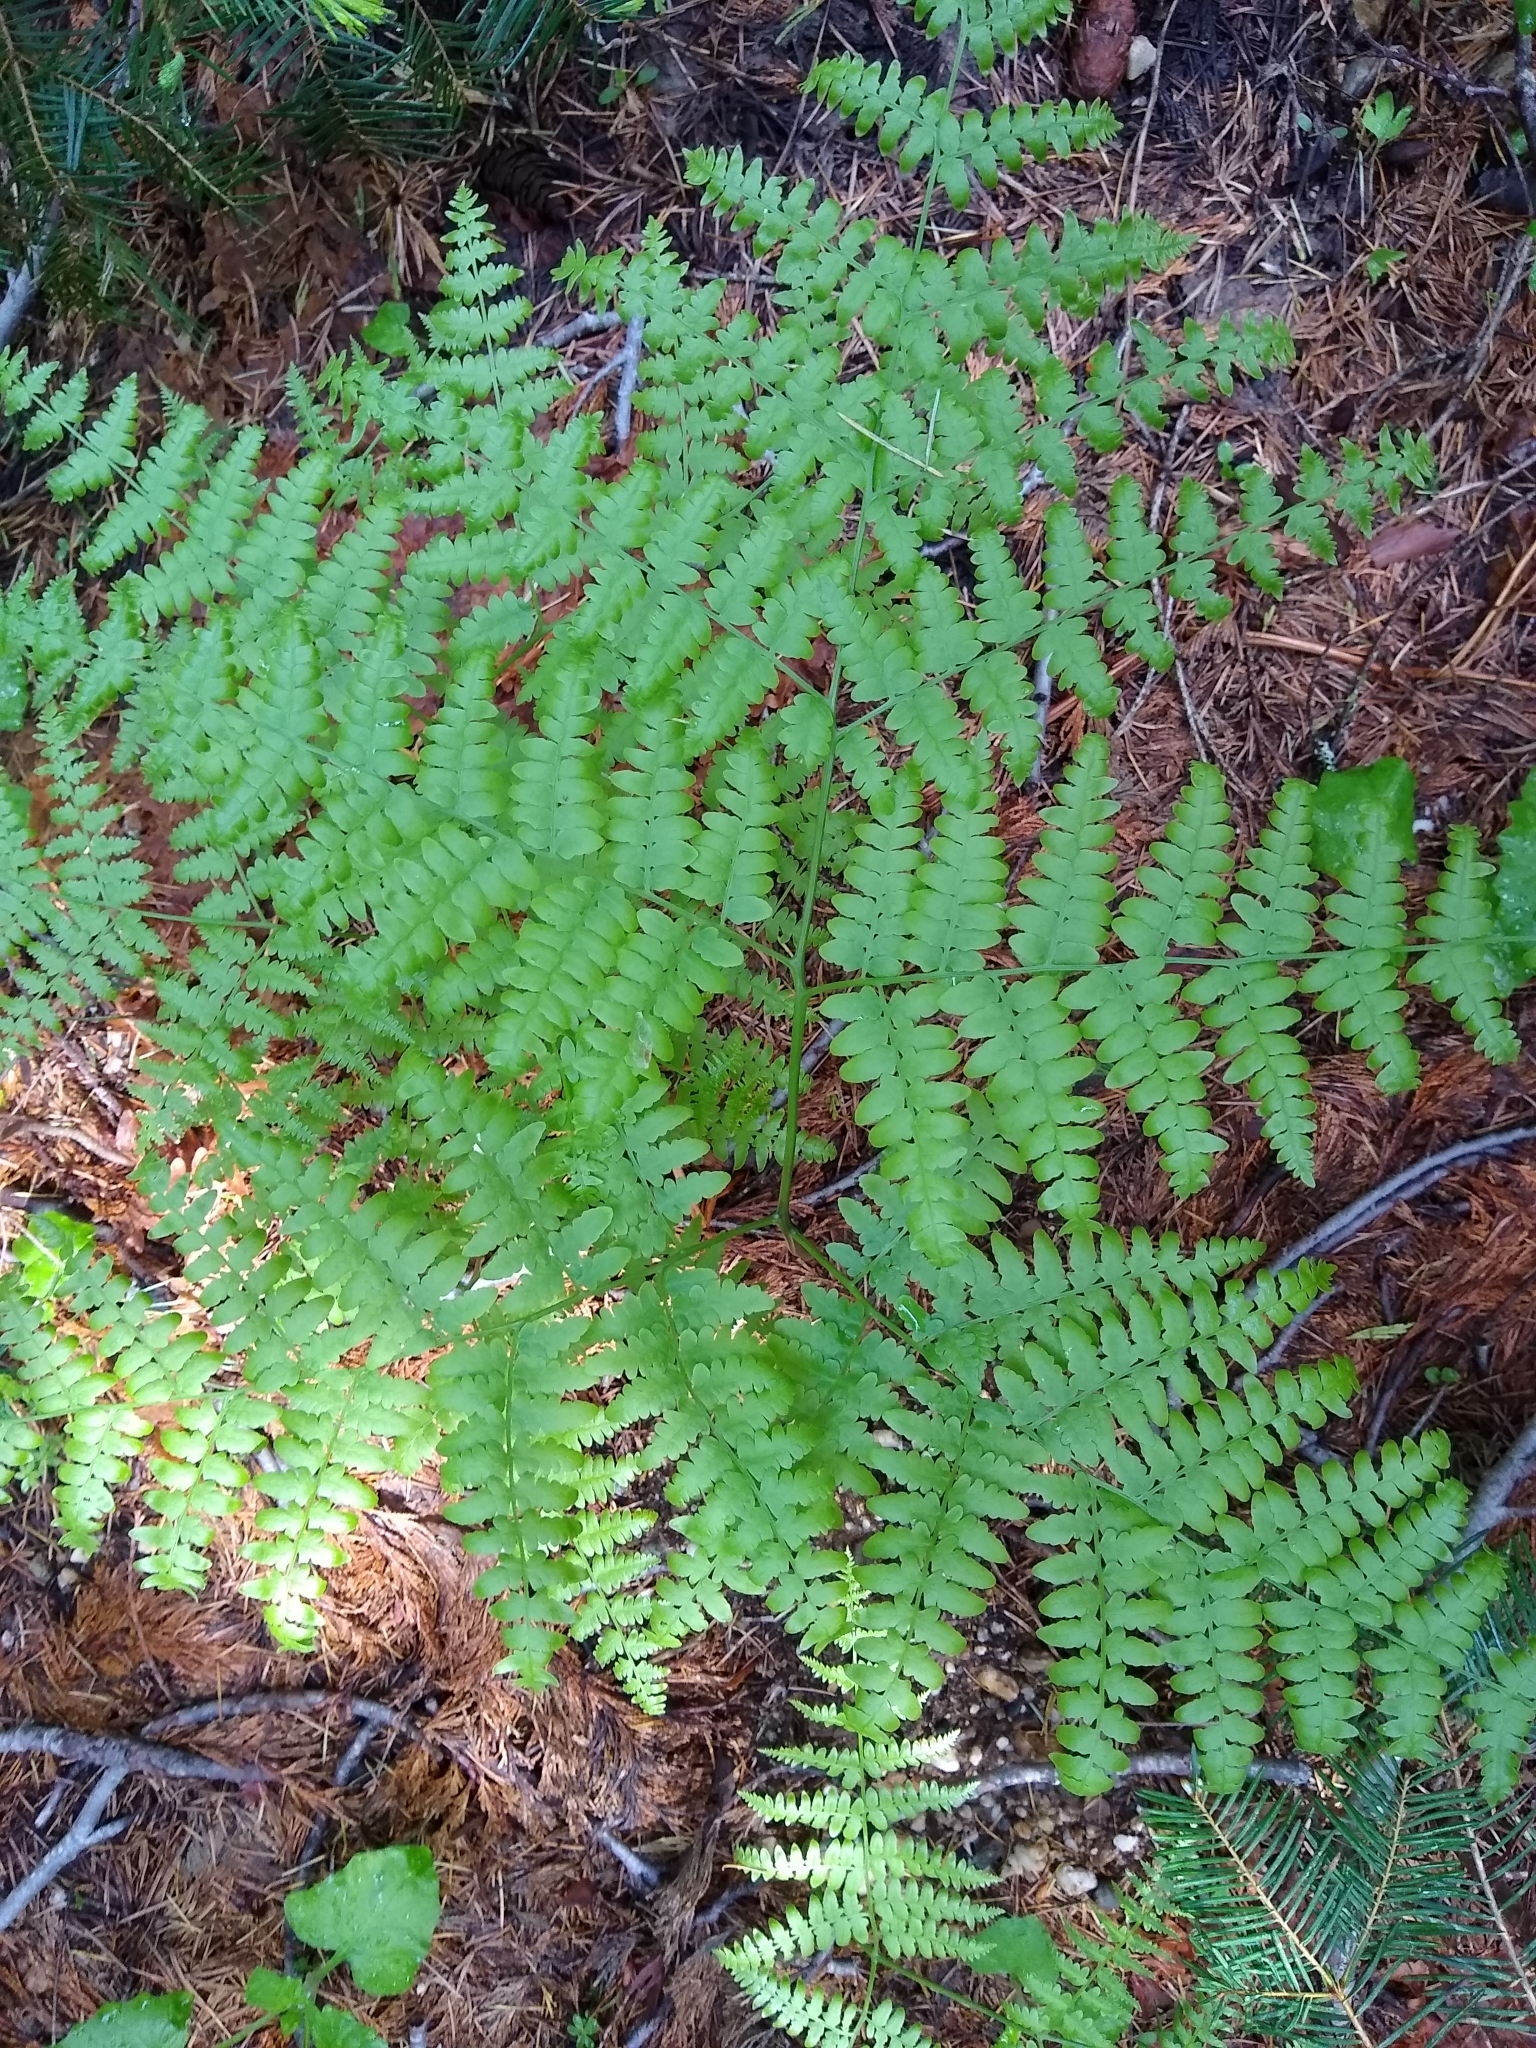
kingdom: Plantae
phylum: Tracheophyta
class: Polypodiopsida
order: Polypodiales
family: Dennstaedtiaceae
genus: Pteridium
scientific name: Pteridium aquilinum
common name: Bracken
